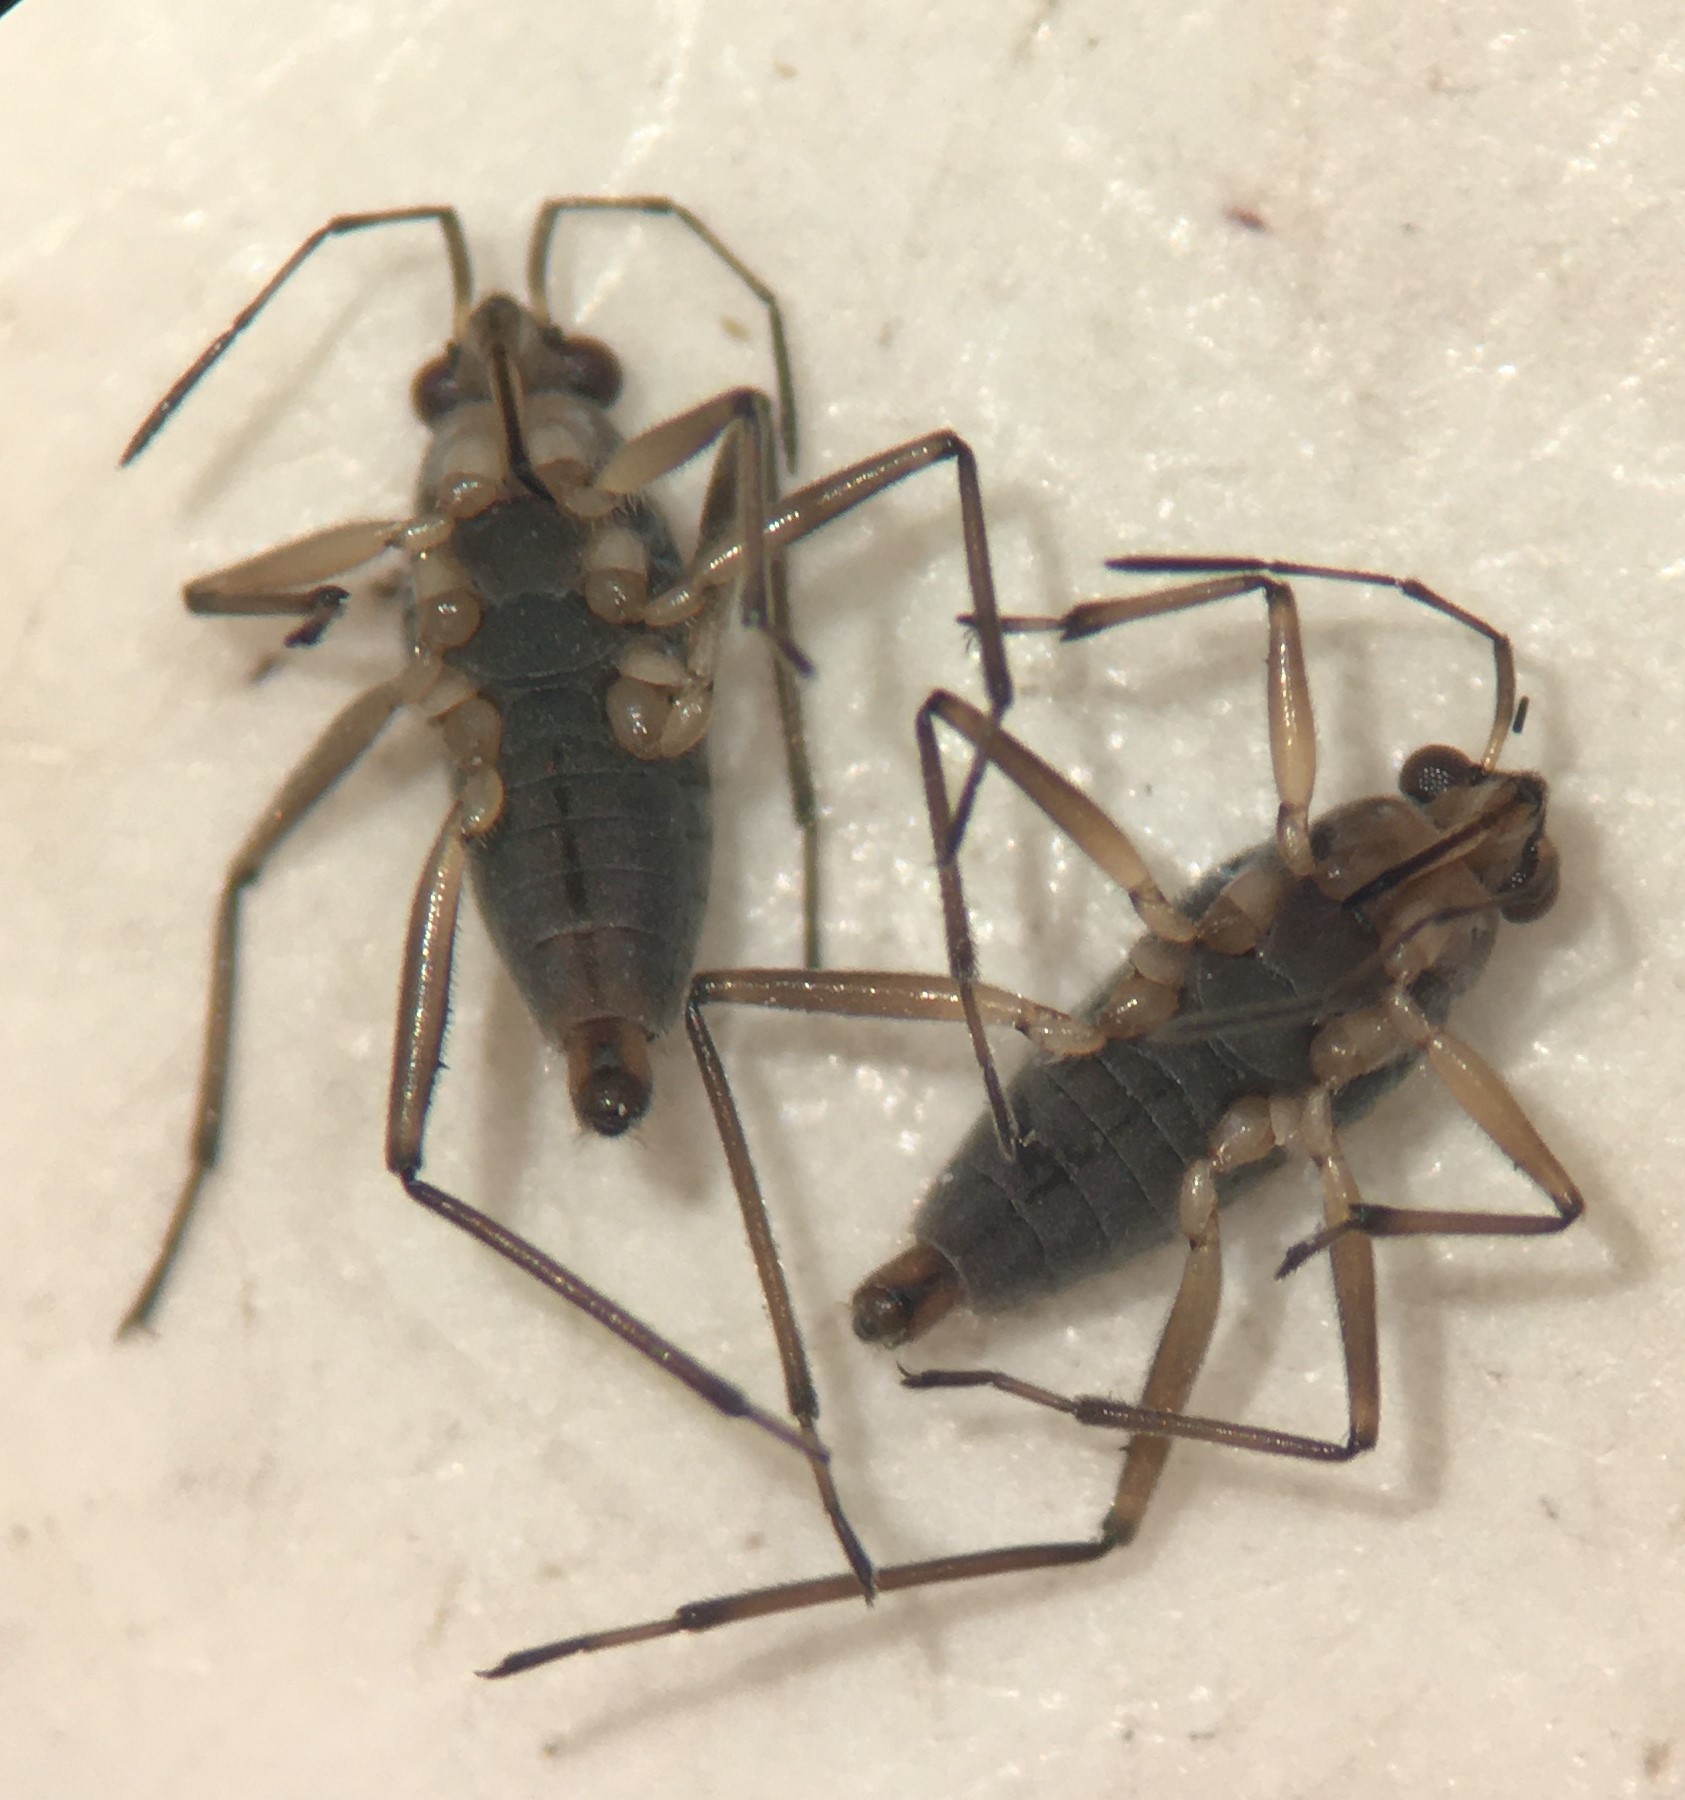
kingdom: Animalia
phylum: Arthropoda
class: Insecta
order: Hemiptera
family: Veliidae
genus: Microvelia
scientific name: Microvelia americana
